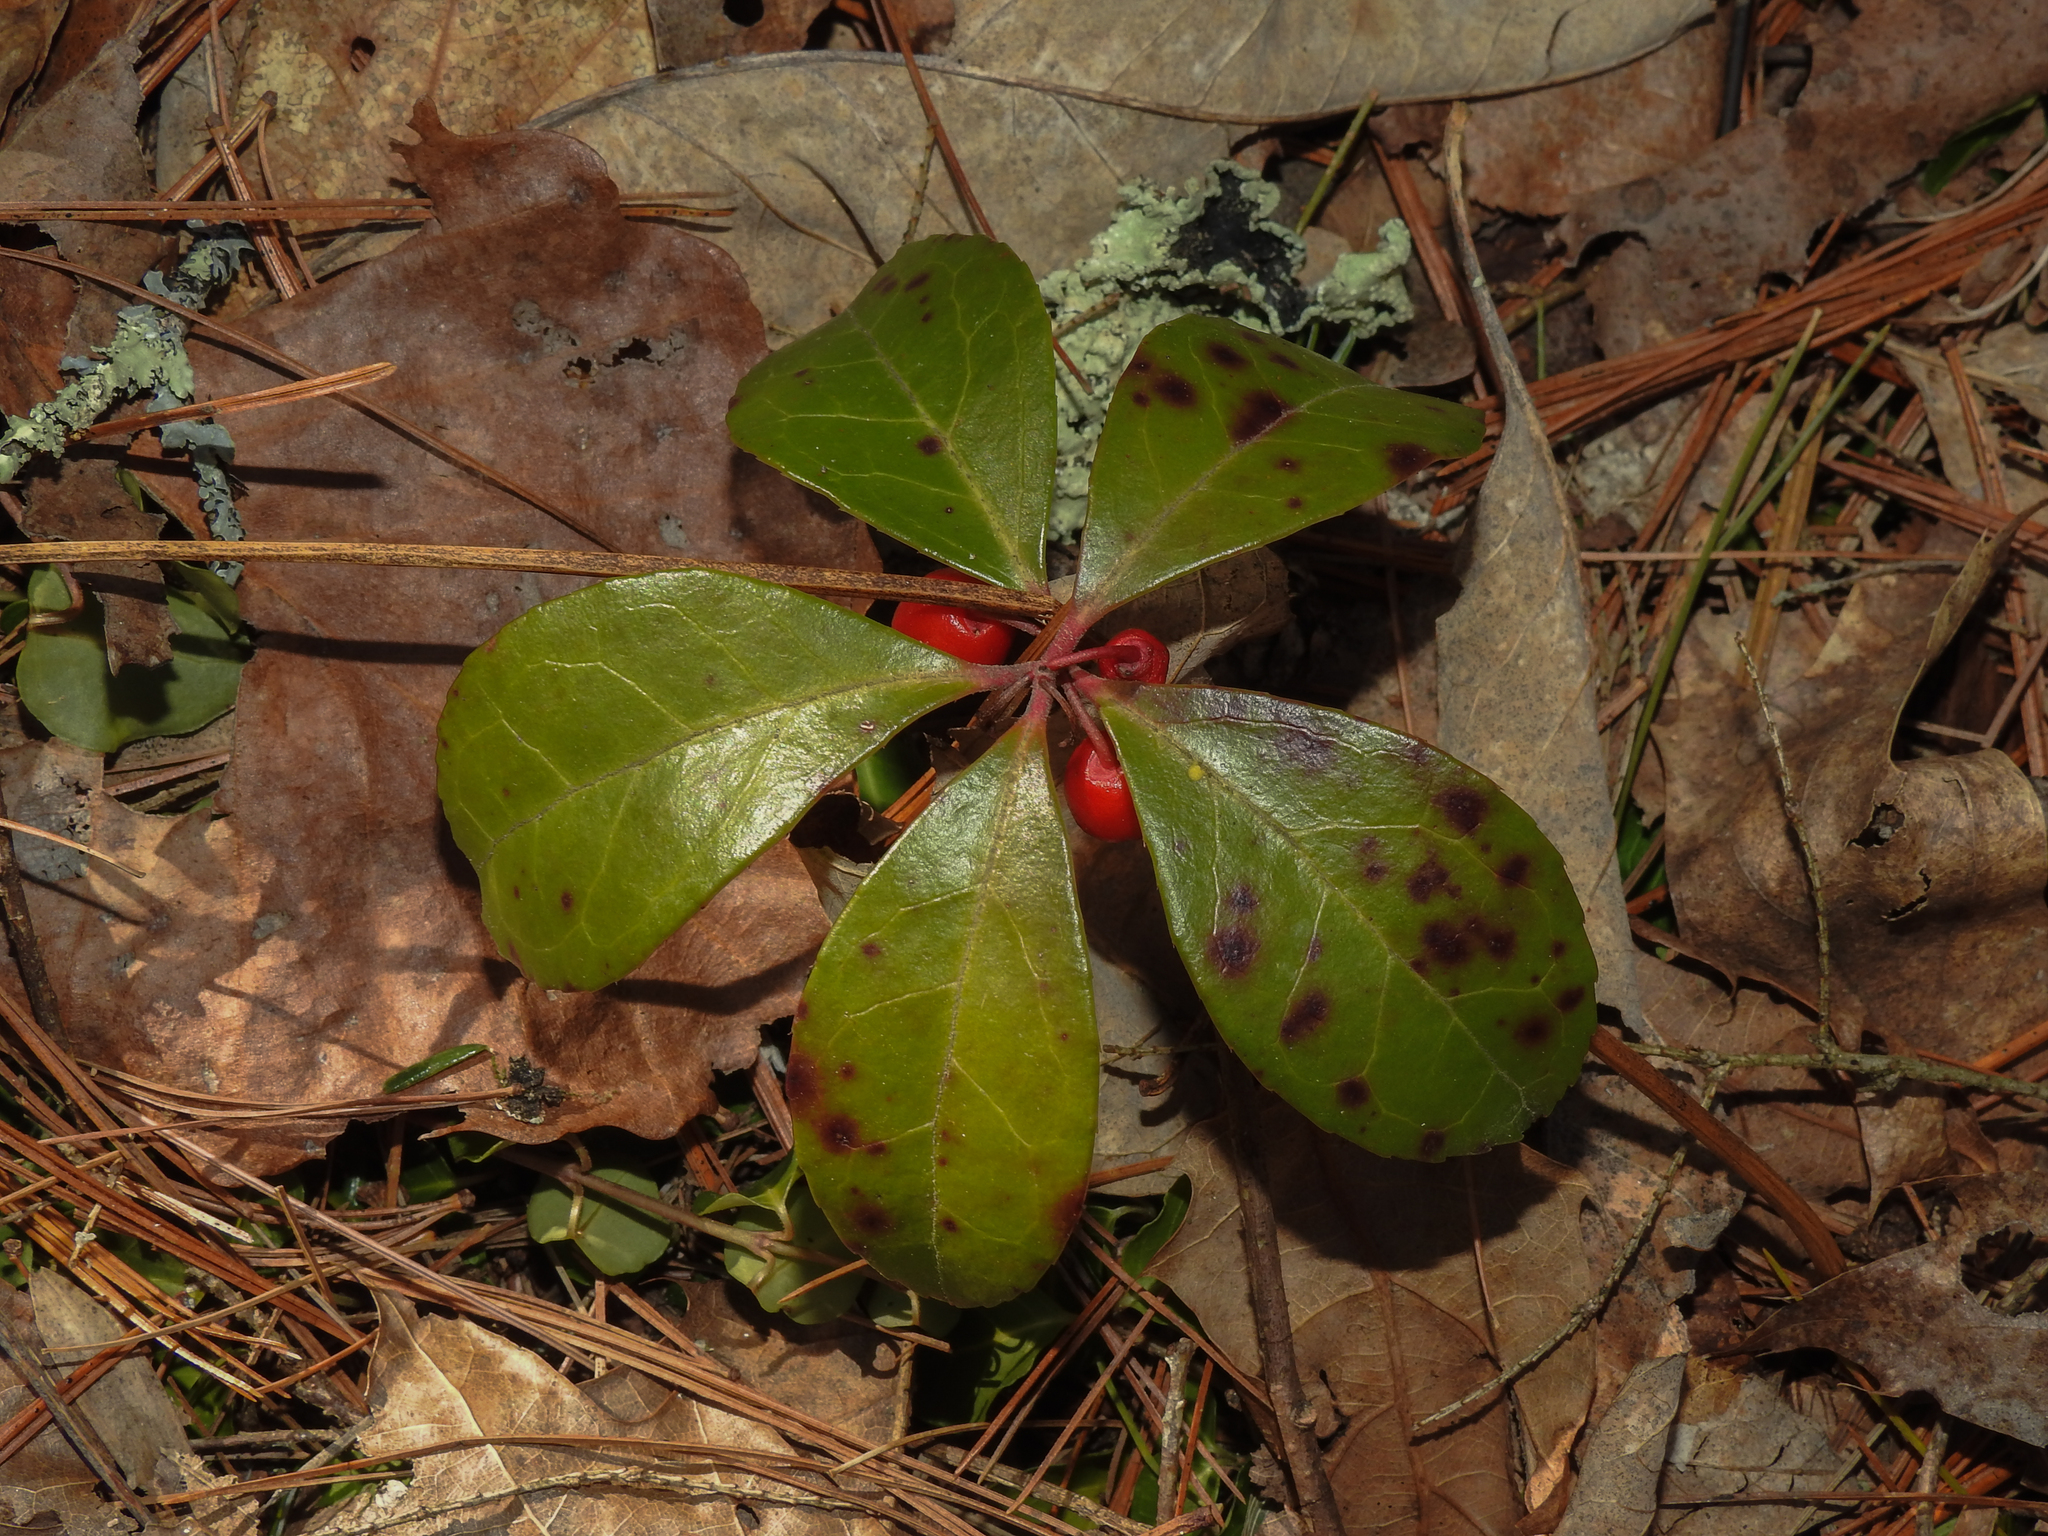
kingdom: Plantae
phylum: Tracheophyta
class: Magnoliopsida
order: Ericales
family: Ericaceae
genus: Gaultheria
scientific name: Gaultheria procumbens
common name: Checkerberry
